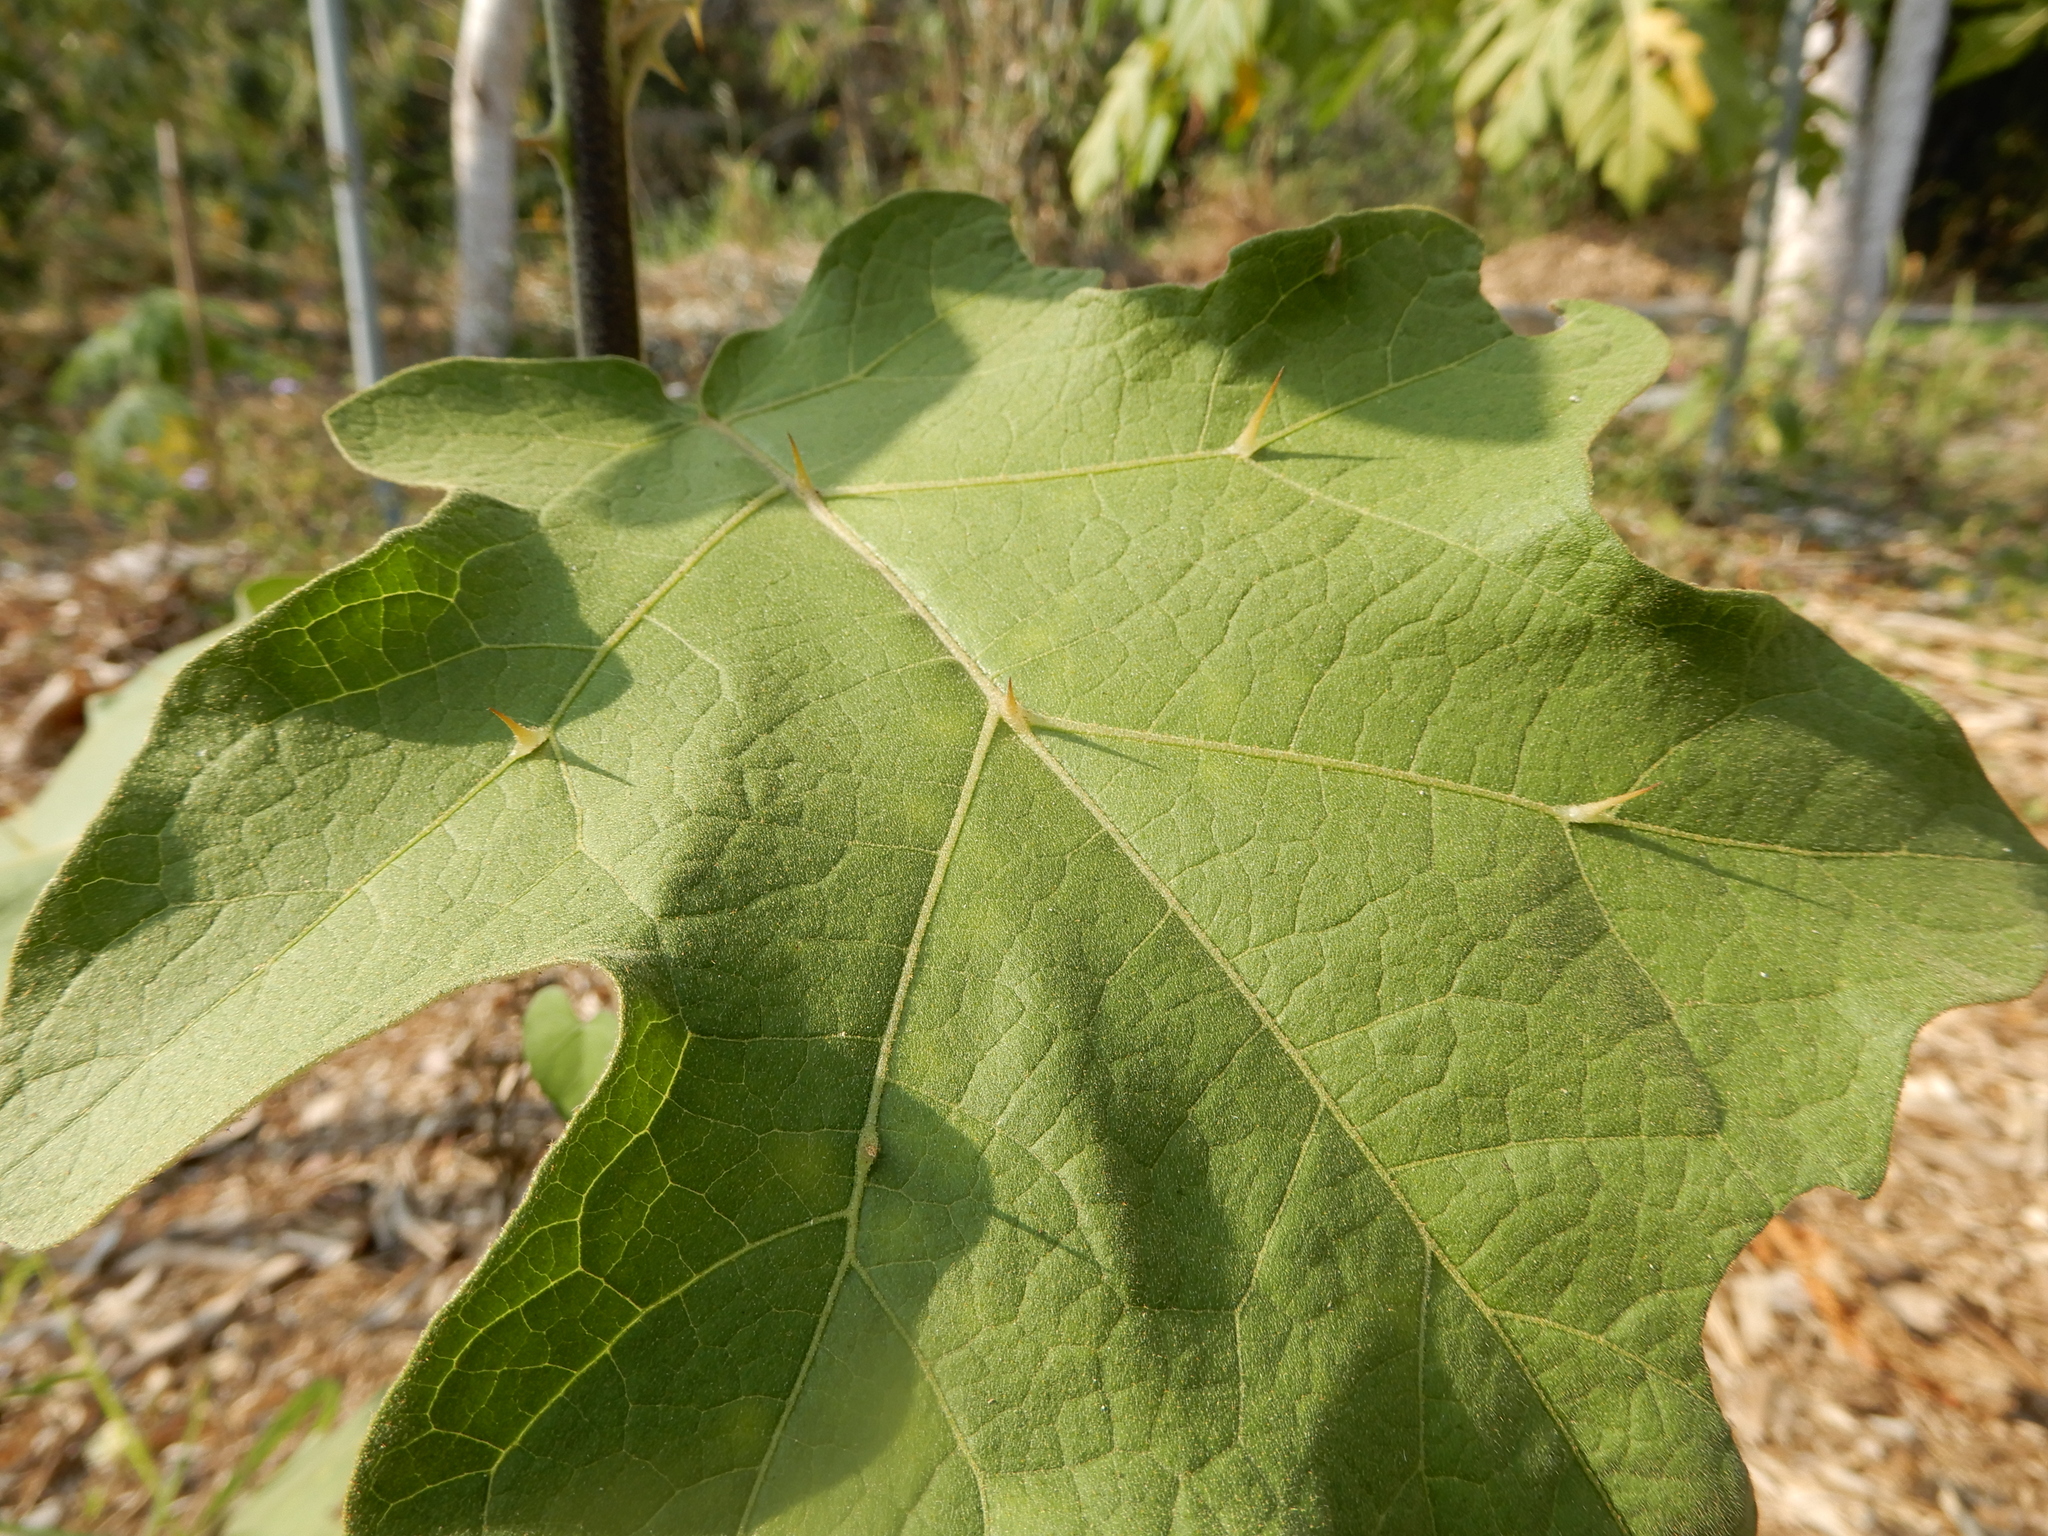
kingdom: Plantae
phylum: Tracheophyta
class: Magnoliopsida
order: Solanales
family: Solanaceae
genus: Solanum
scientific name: Solanum torvum
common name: Turkey berry
